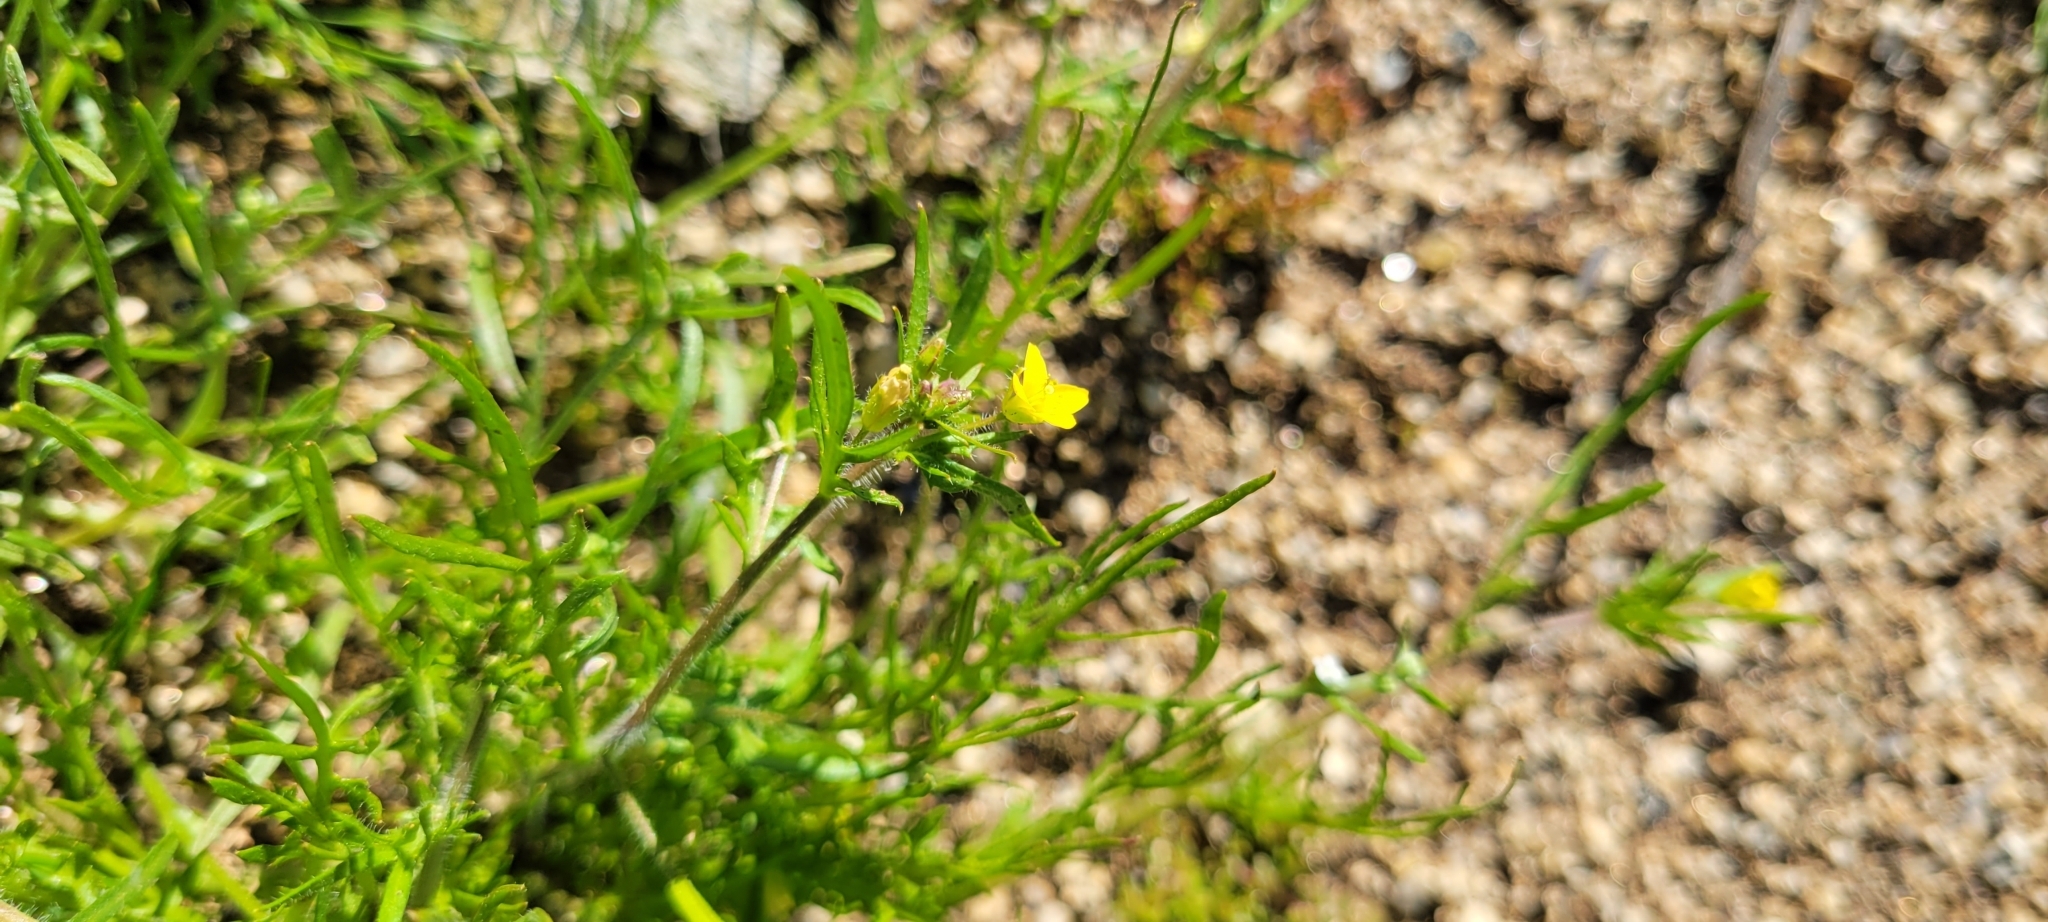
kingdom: Plantae
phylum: Tracheophyta
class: Magnoliopsida
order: Brassicales
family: Brassicaceae
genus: Tropidocarpum
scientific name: Tropidocarpum gracile
